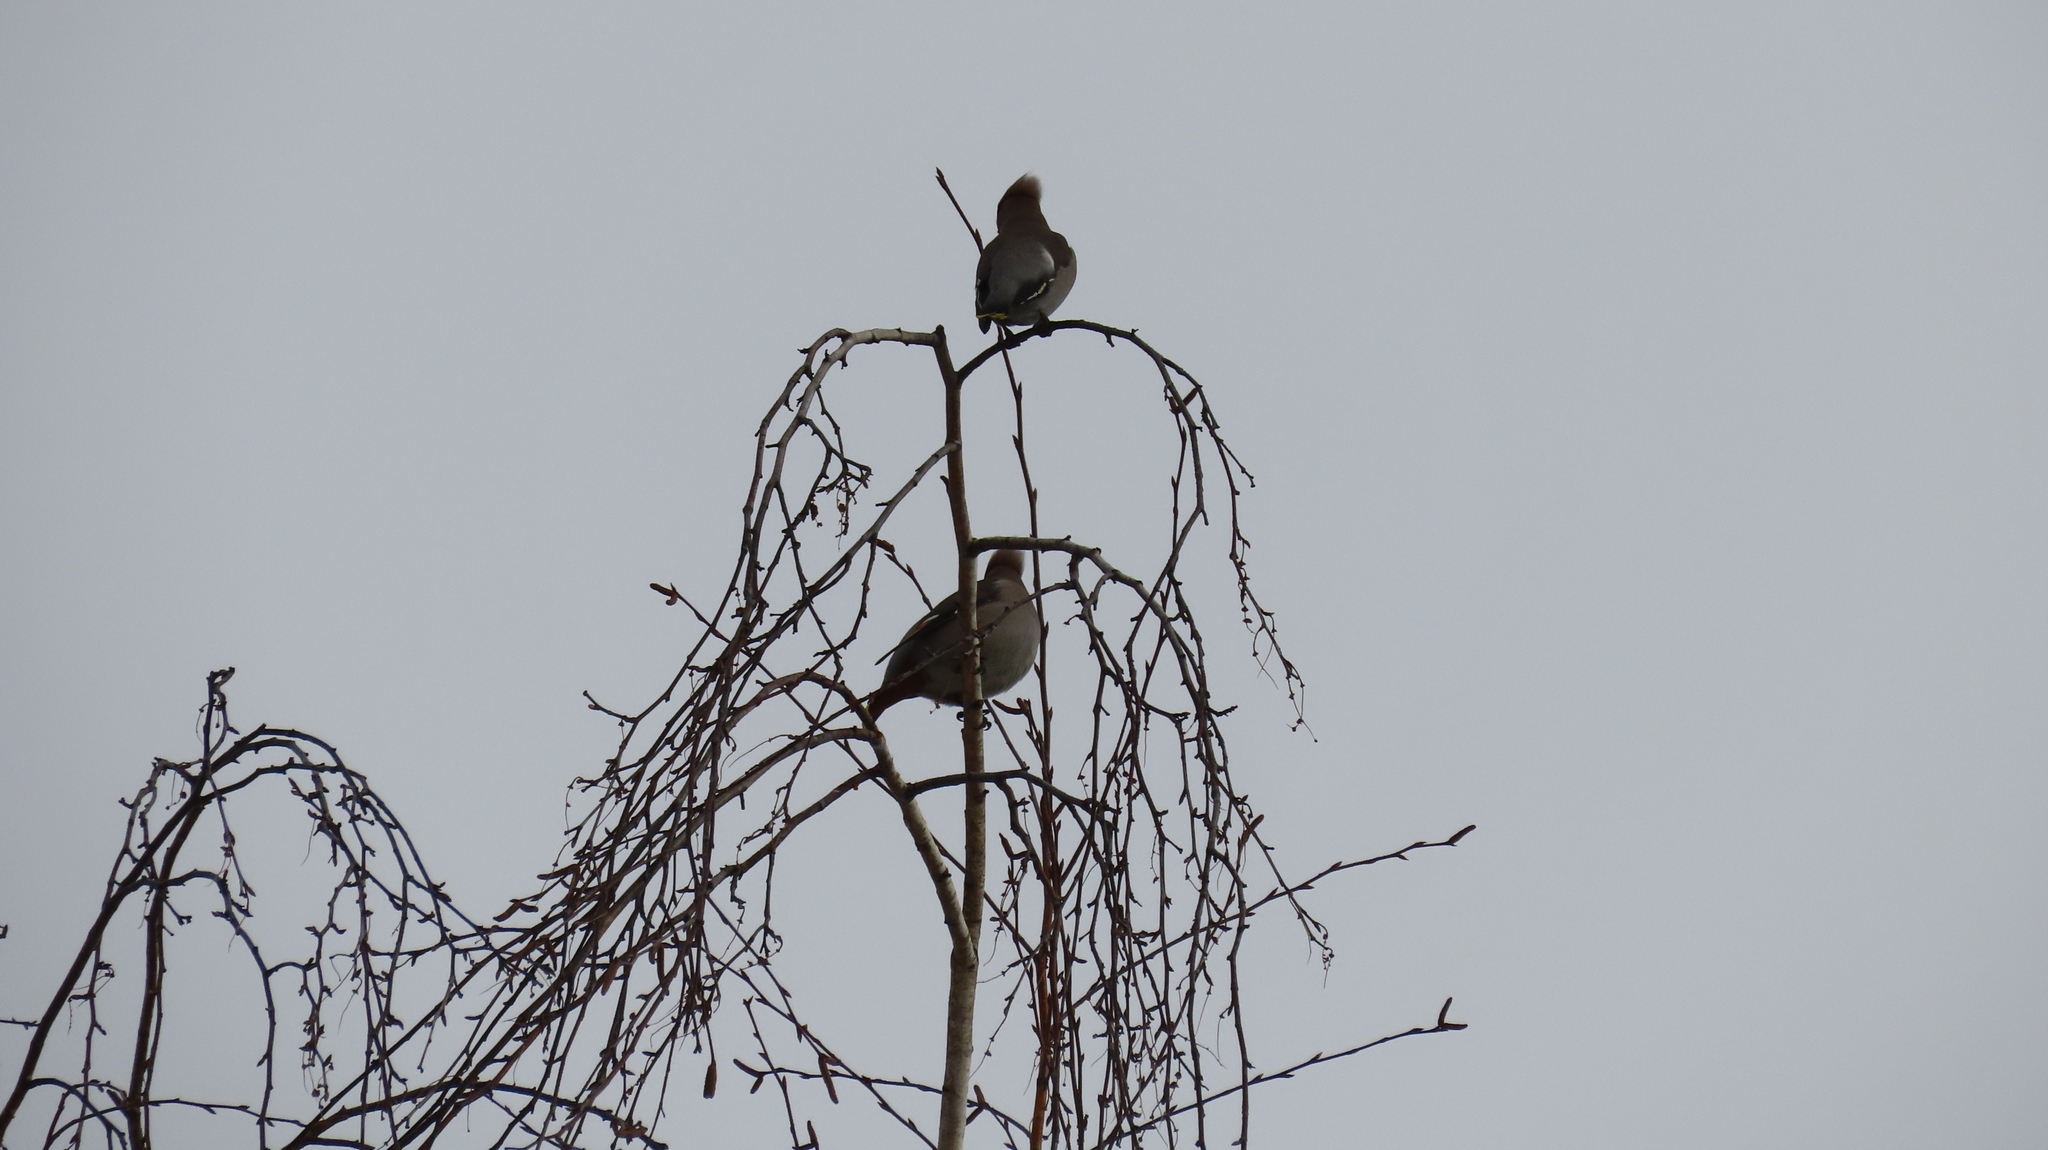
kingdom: Animalia
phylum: Chordata
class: Aves
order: Passeriformes
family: Bombycillidae
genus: Bombycilla
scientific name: Bombycilla garrulus
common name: Bohemian waxwing
